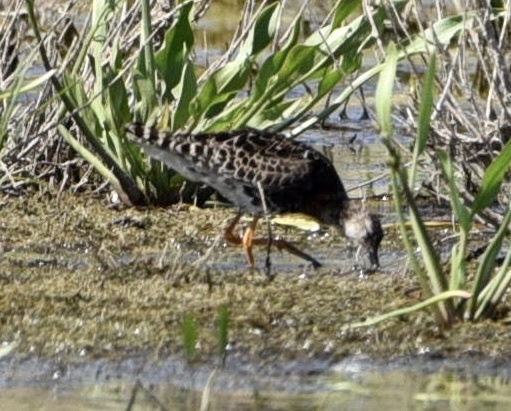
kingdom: Animalia
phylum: Chordata
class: Aves
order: Charadriiformes
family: Scolopacidae
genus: Calidris
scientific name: Calidris pugnax
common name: Ruff
